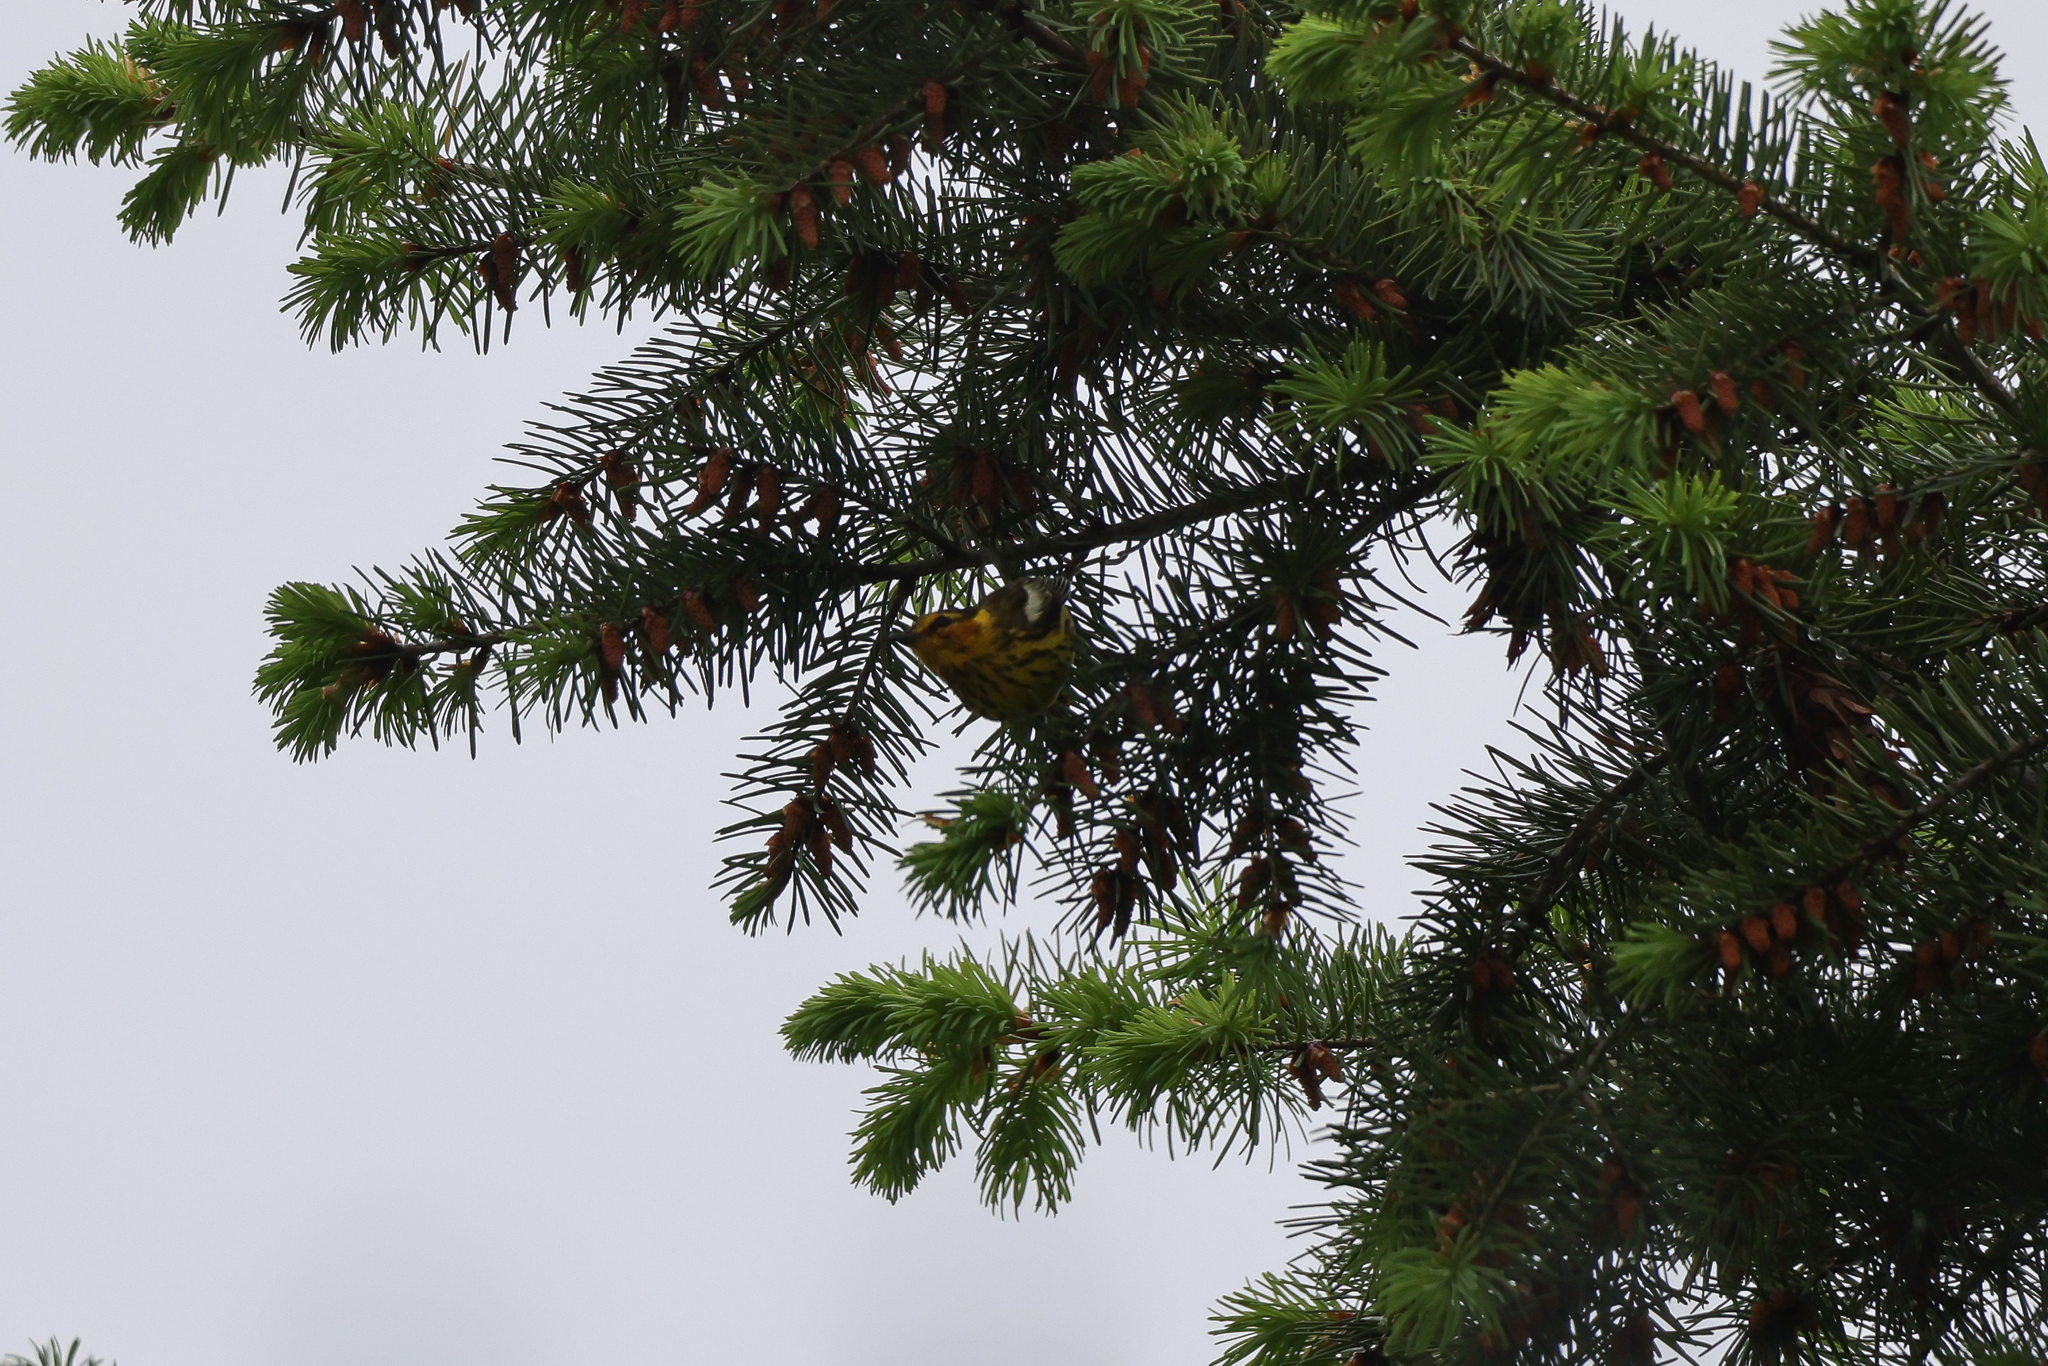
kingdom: Animalia
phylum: Chordata
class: Aves
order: Passeriformes
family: Parulidae
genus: Setophaga
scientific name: Setophaga tigrina
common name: Cape may warbler
